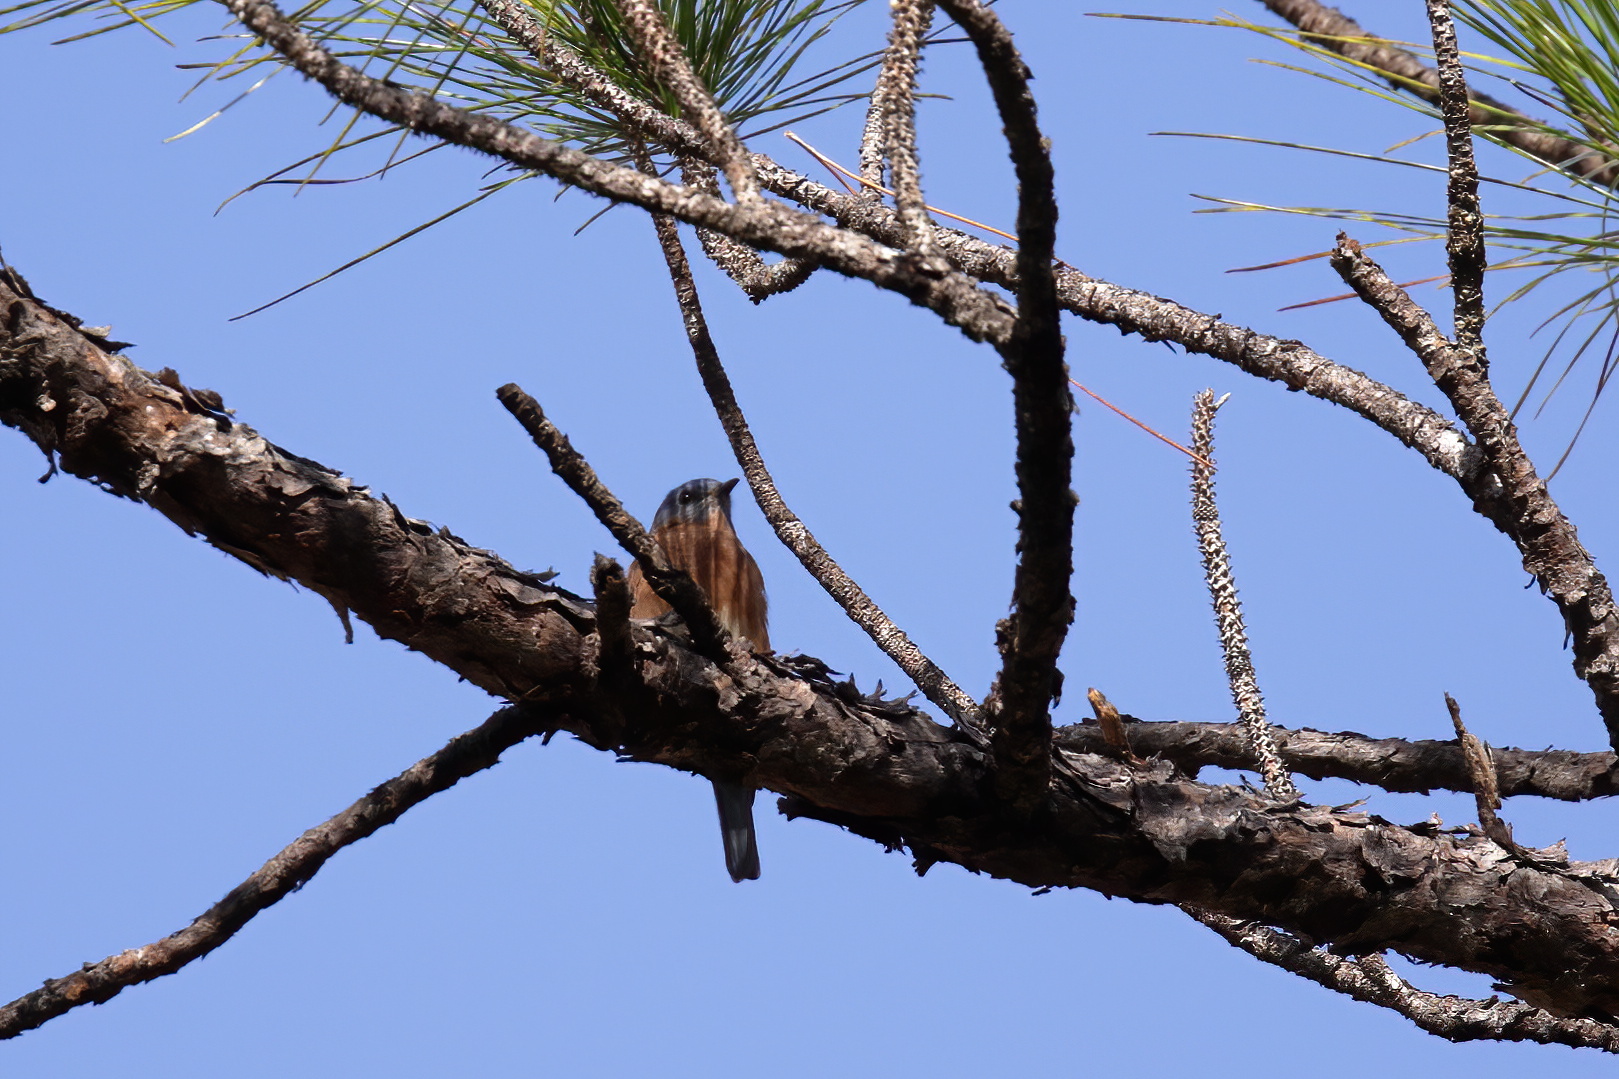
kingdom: Animalia
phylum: Chordata
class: Aves
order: Passeriformes
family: Turdidae
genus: Sialia
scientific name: Sialia sialis
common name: Eastern bluebird
